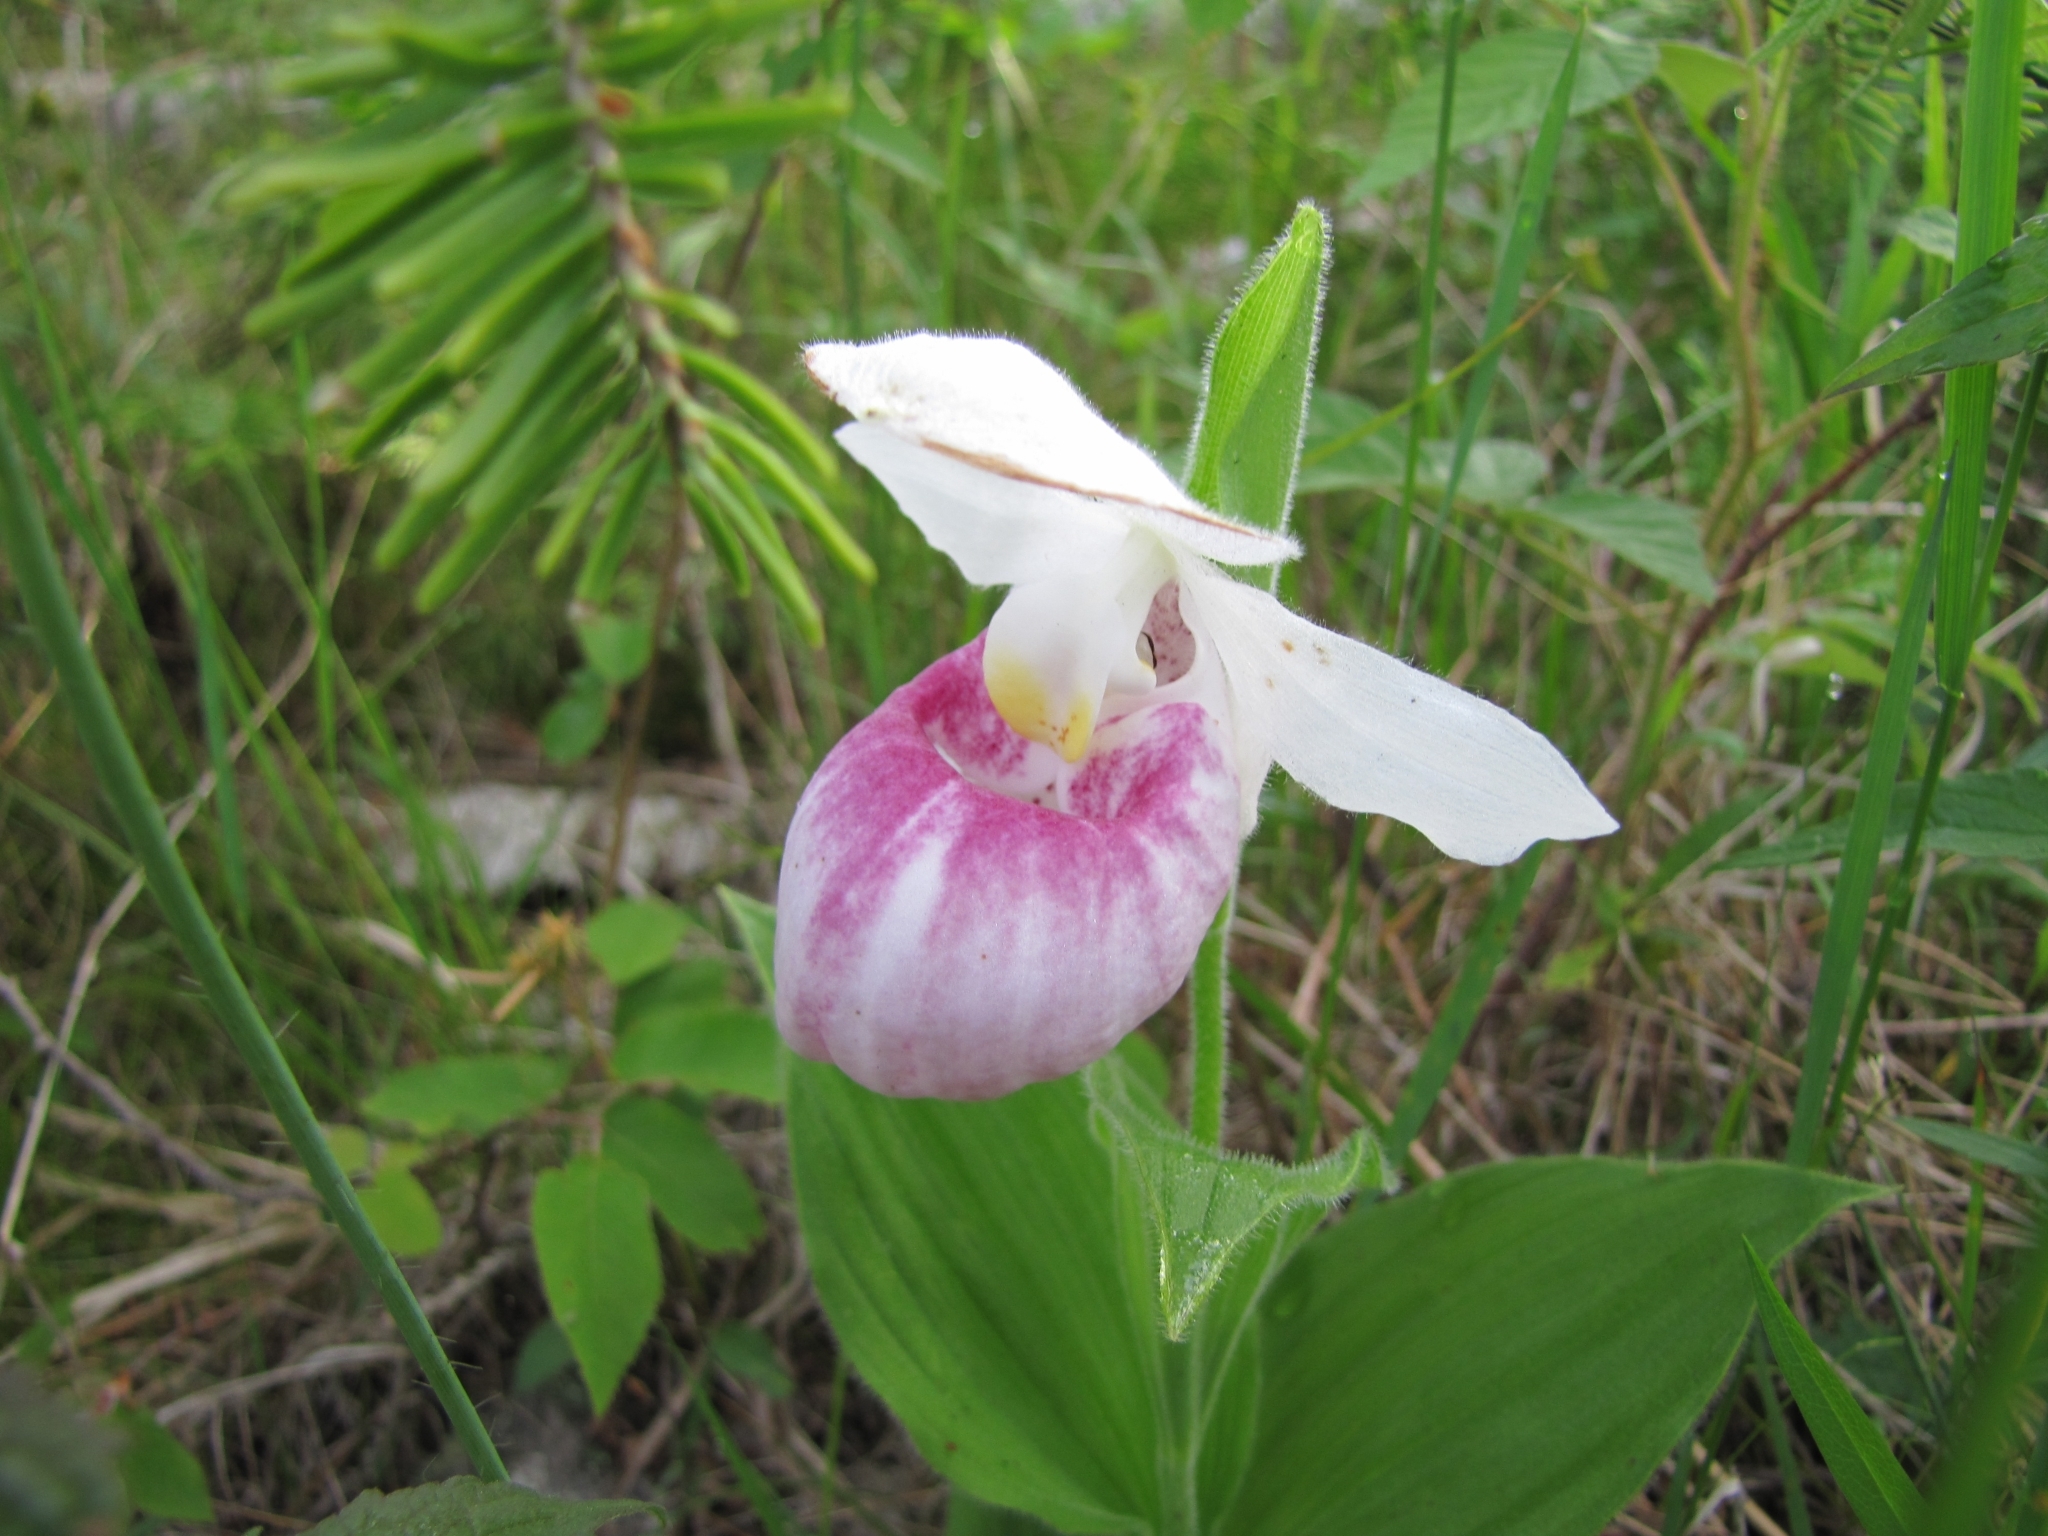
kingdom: Plantae
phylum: Tracheophyta
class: Liliopsida
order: Asparagales
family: Orchidaceae
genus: Cypripedium
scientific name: Cypripedium reginae
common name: Queen lady's-slipper
